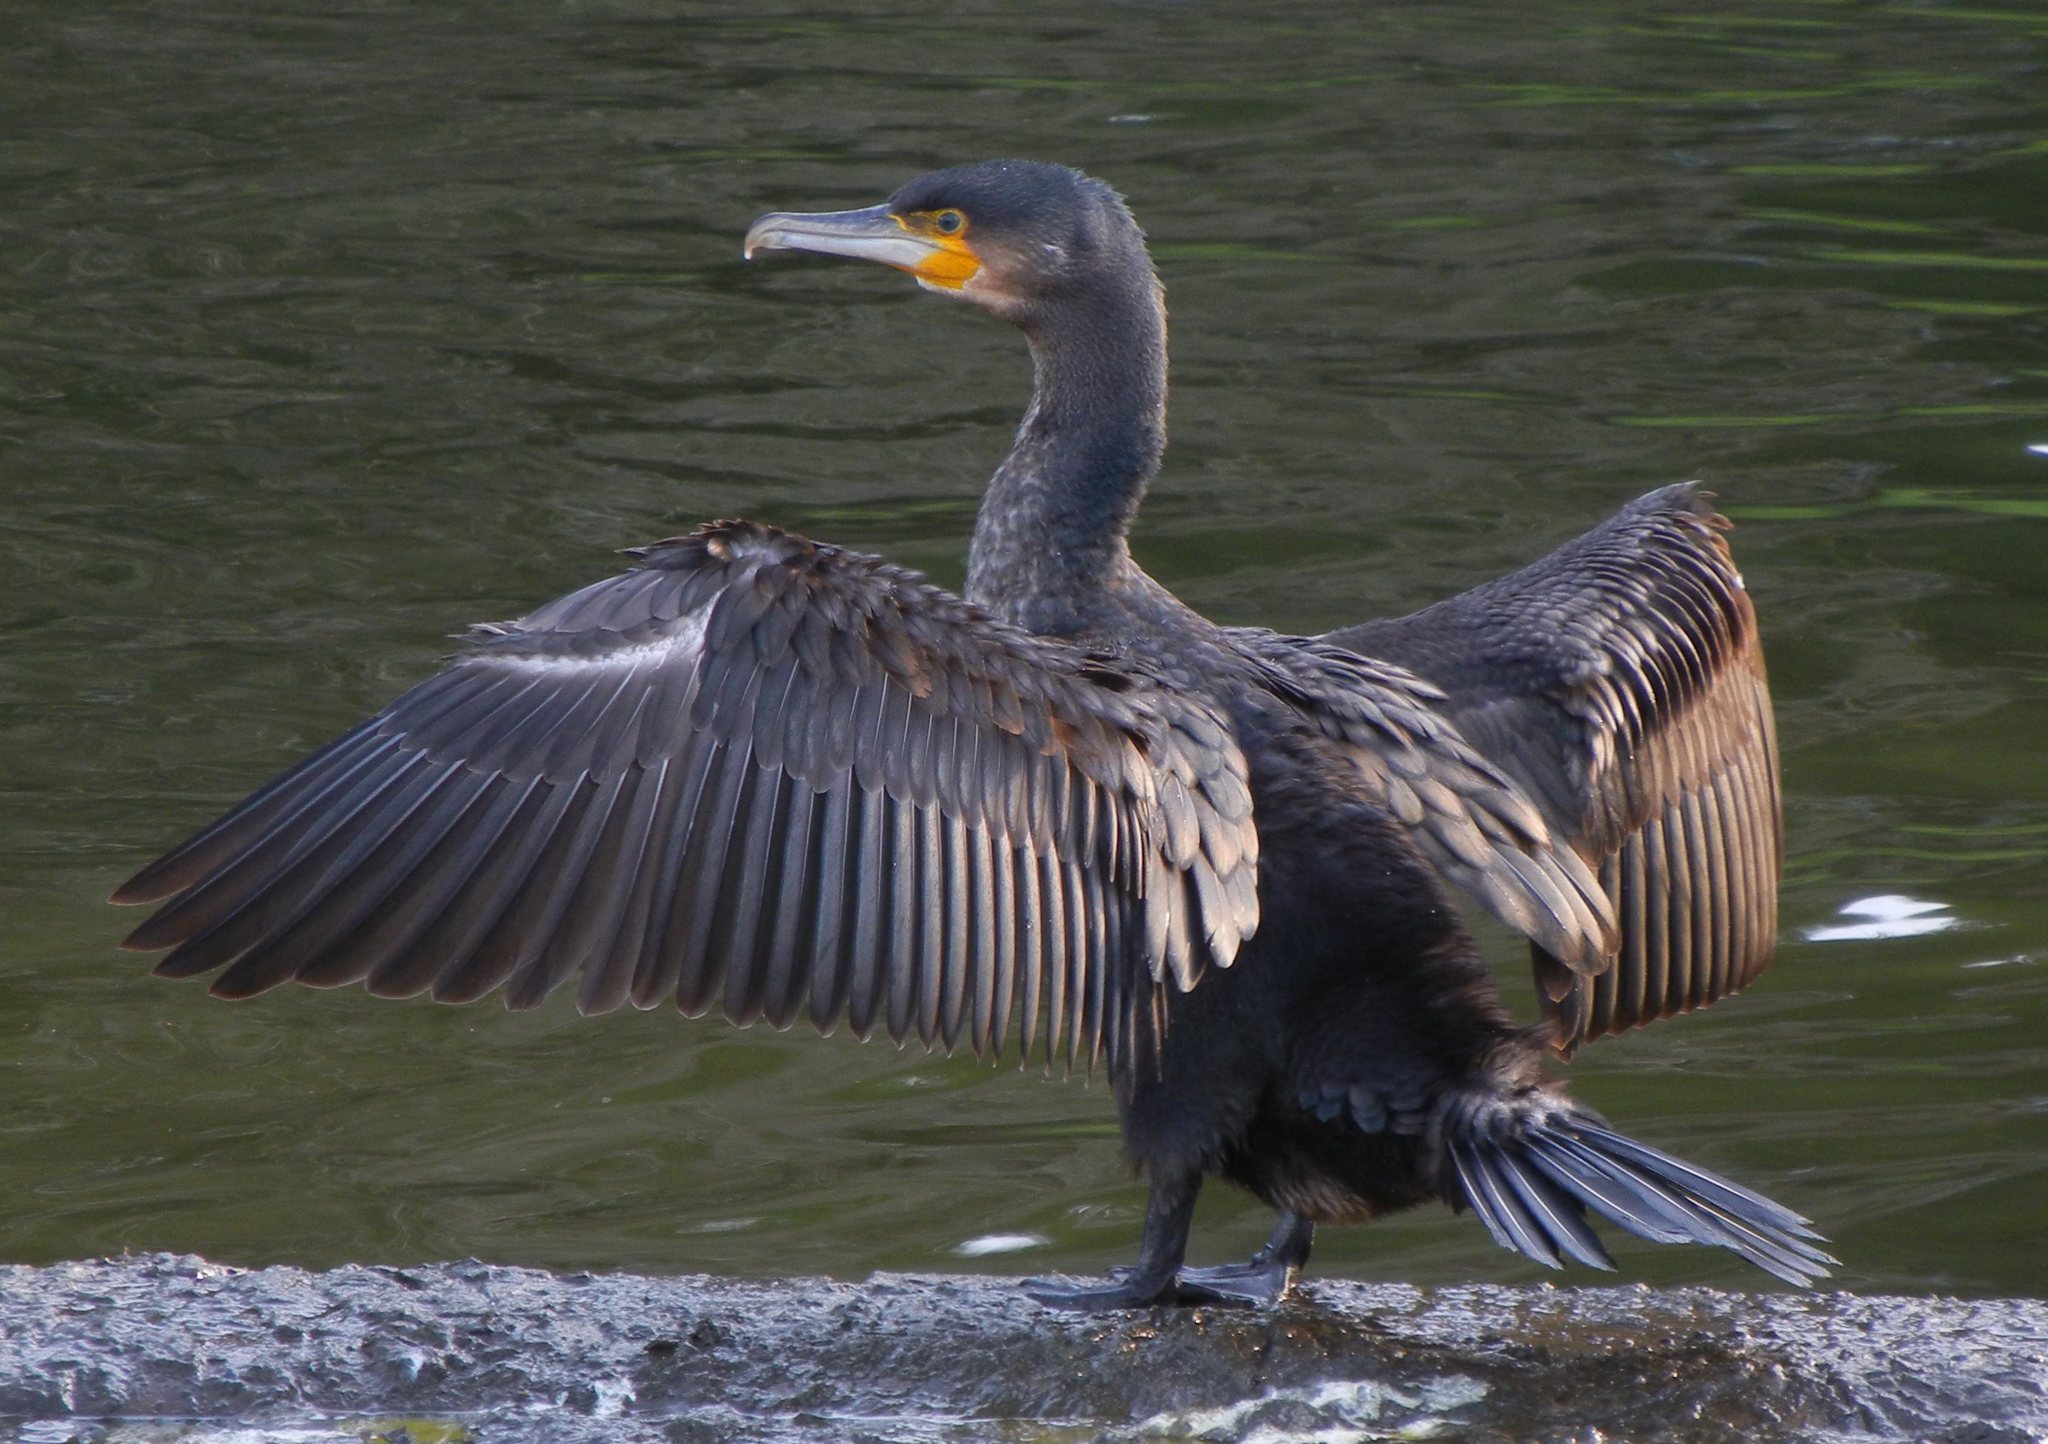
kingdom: Animalia
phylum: Chordata
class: Aves
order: Suliformes
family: Phalacrocoracidae
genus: Phalacrocorax
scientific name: Phalacrocorax carbo
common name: Great cormorant
